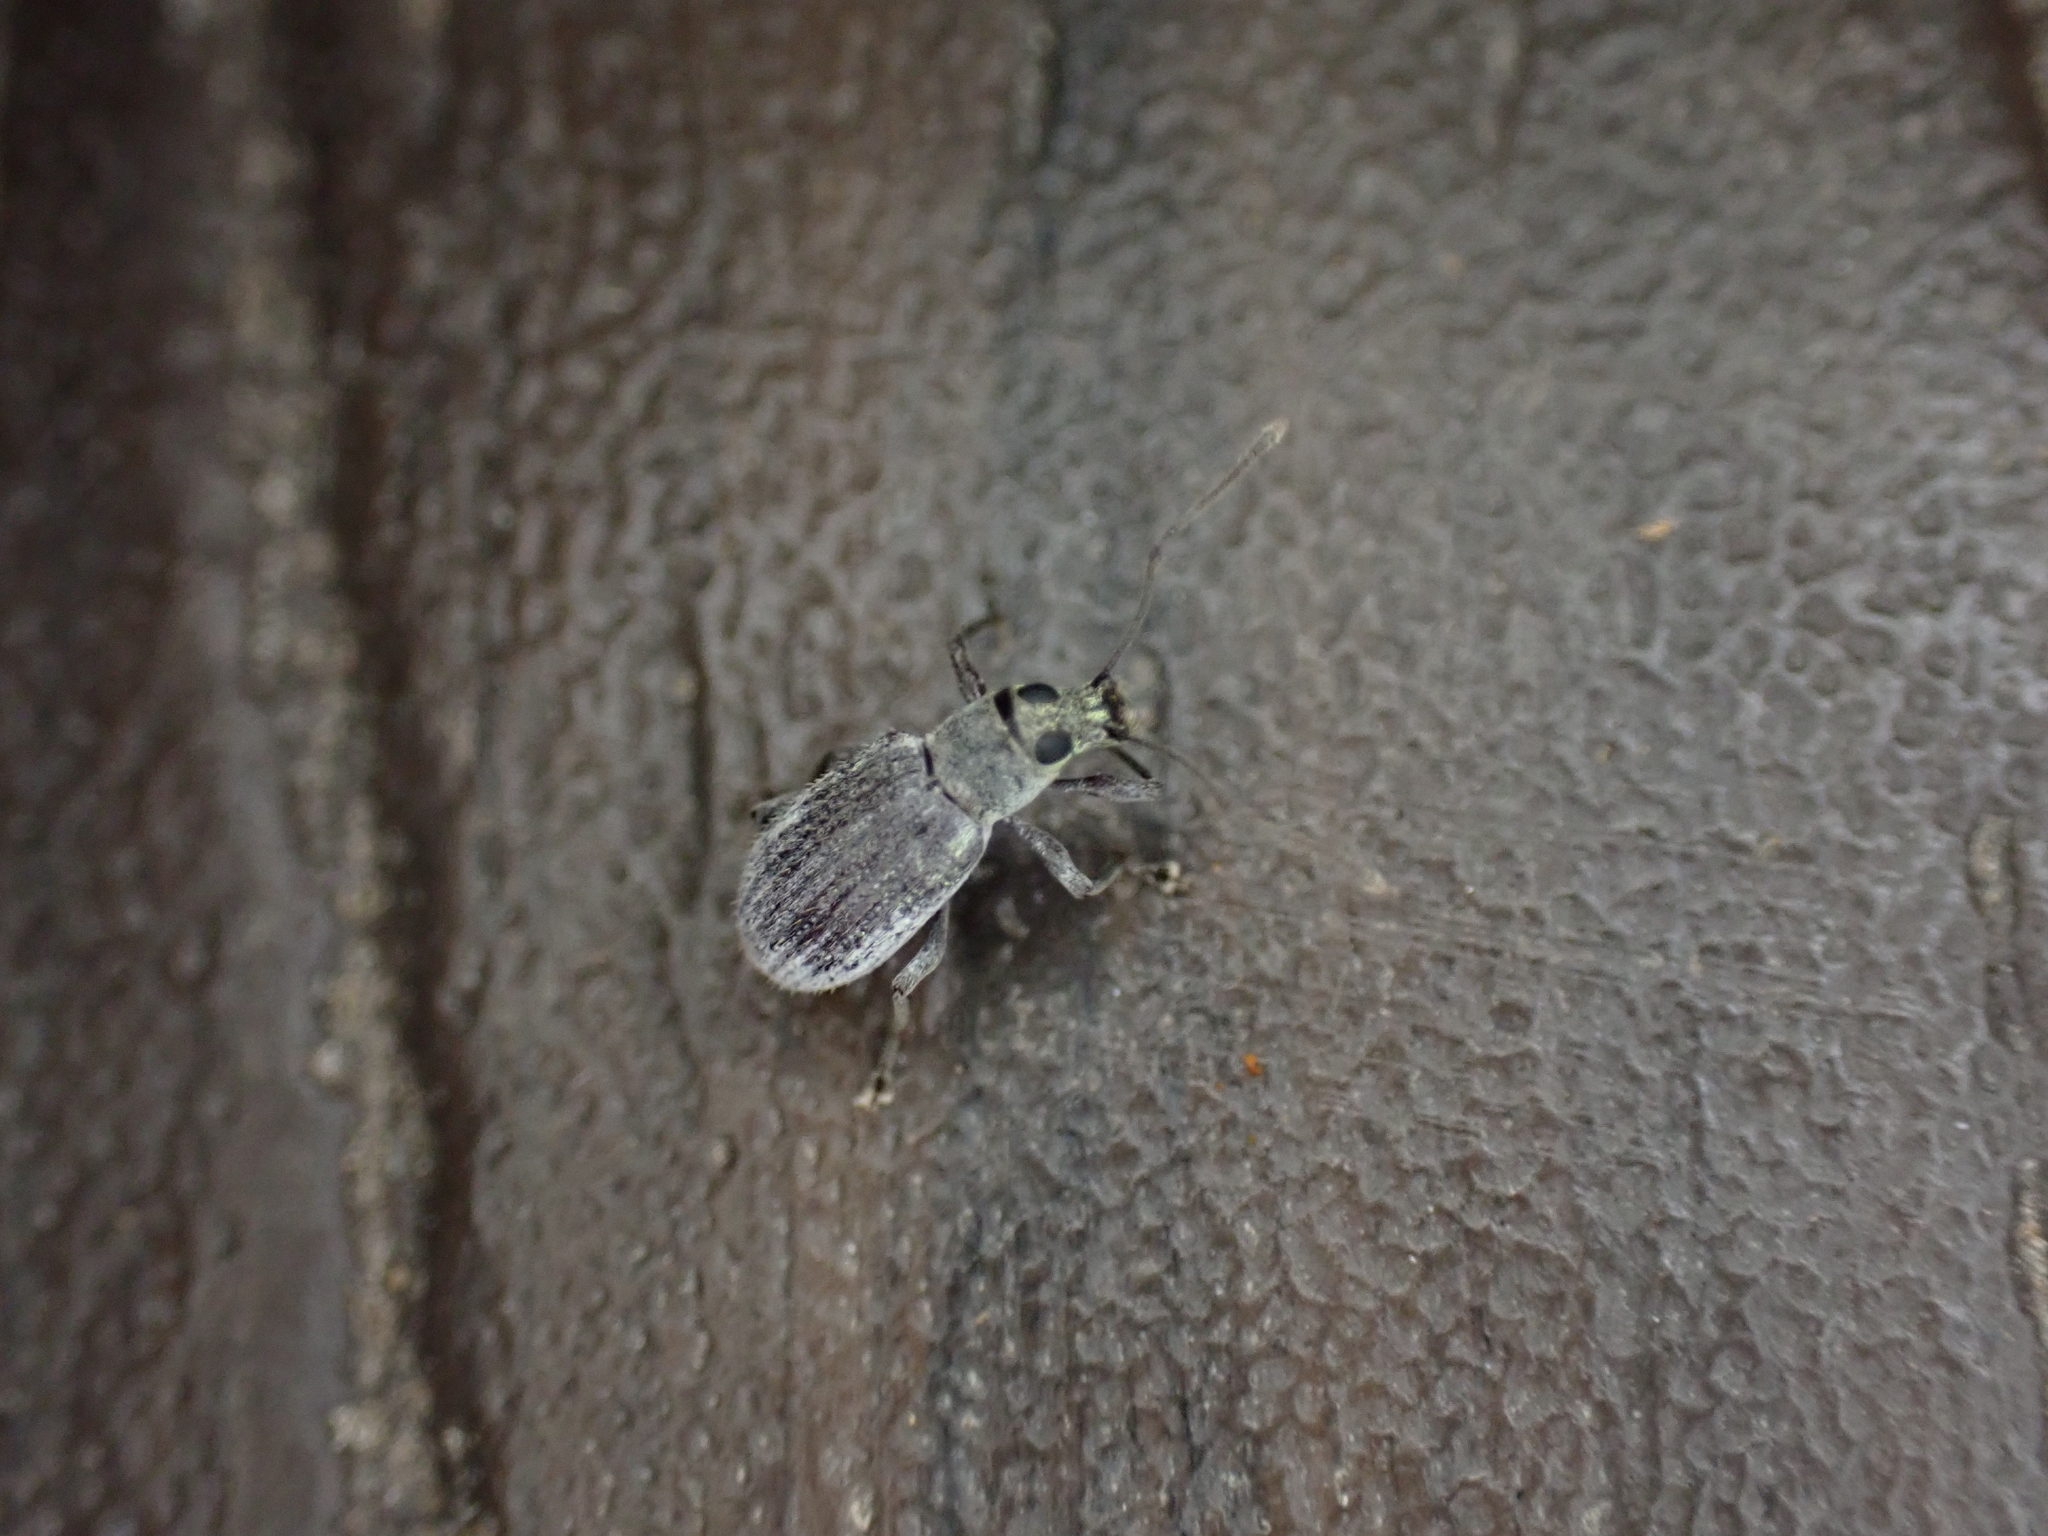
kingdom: Animalia
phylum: Arthropoda
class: Insecta
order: Coleoptera
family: Curculionidae
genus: Cyrtepistomus
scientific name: Cyrtepistomus castaneus
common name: Weevil
